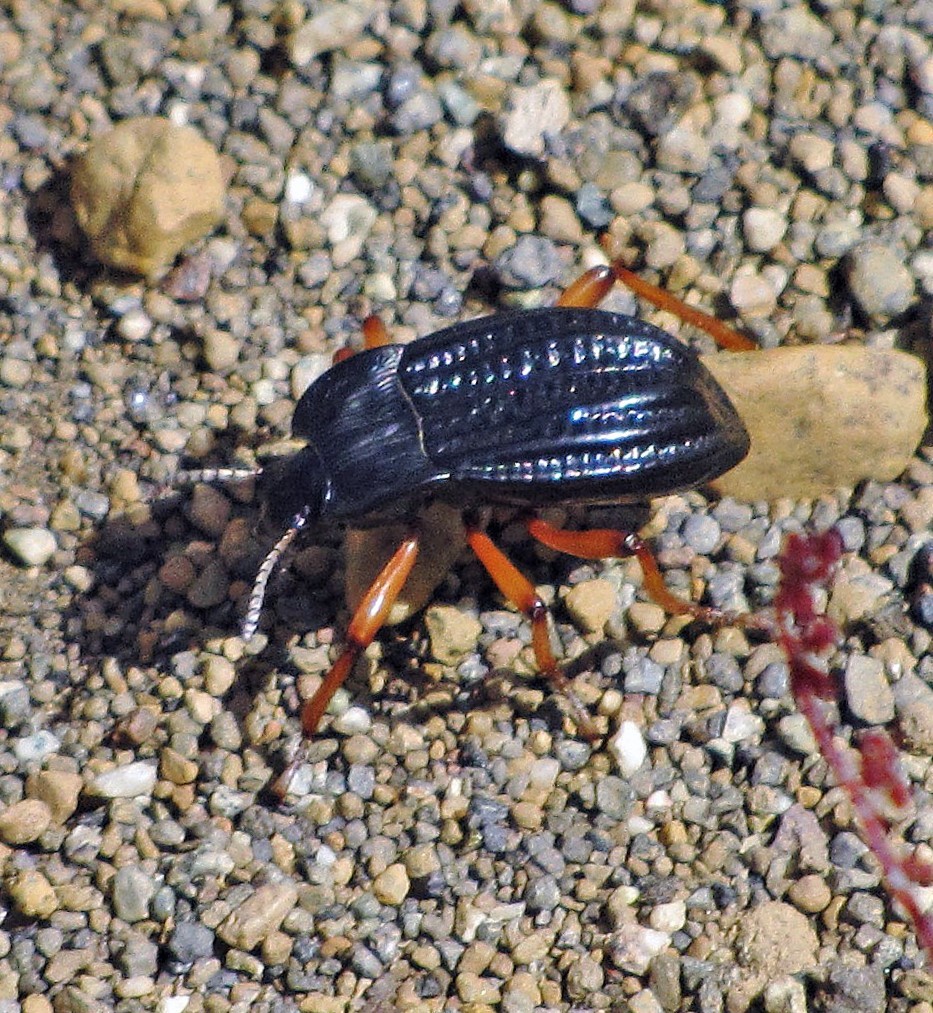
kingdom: Animalia
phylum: Arthropoda
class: Insecta
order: Coleoptera
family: Tenebrionidae
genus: Epipedonota
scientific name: Epipedonota
